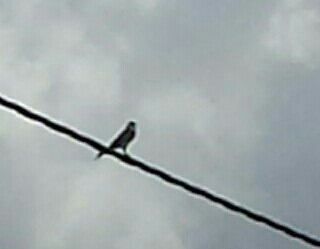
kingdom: Animalia
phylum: Chordata
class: Aves
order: Falconiformes
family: Falconidae
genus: Falco
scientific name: Falco sparverius
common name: American kestrel
